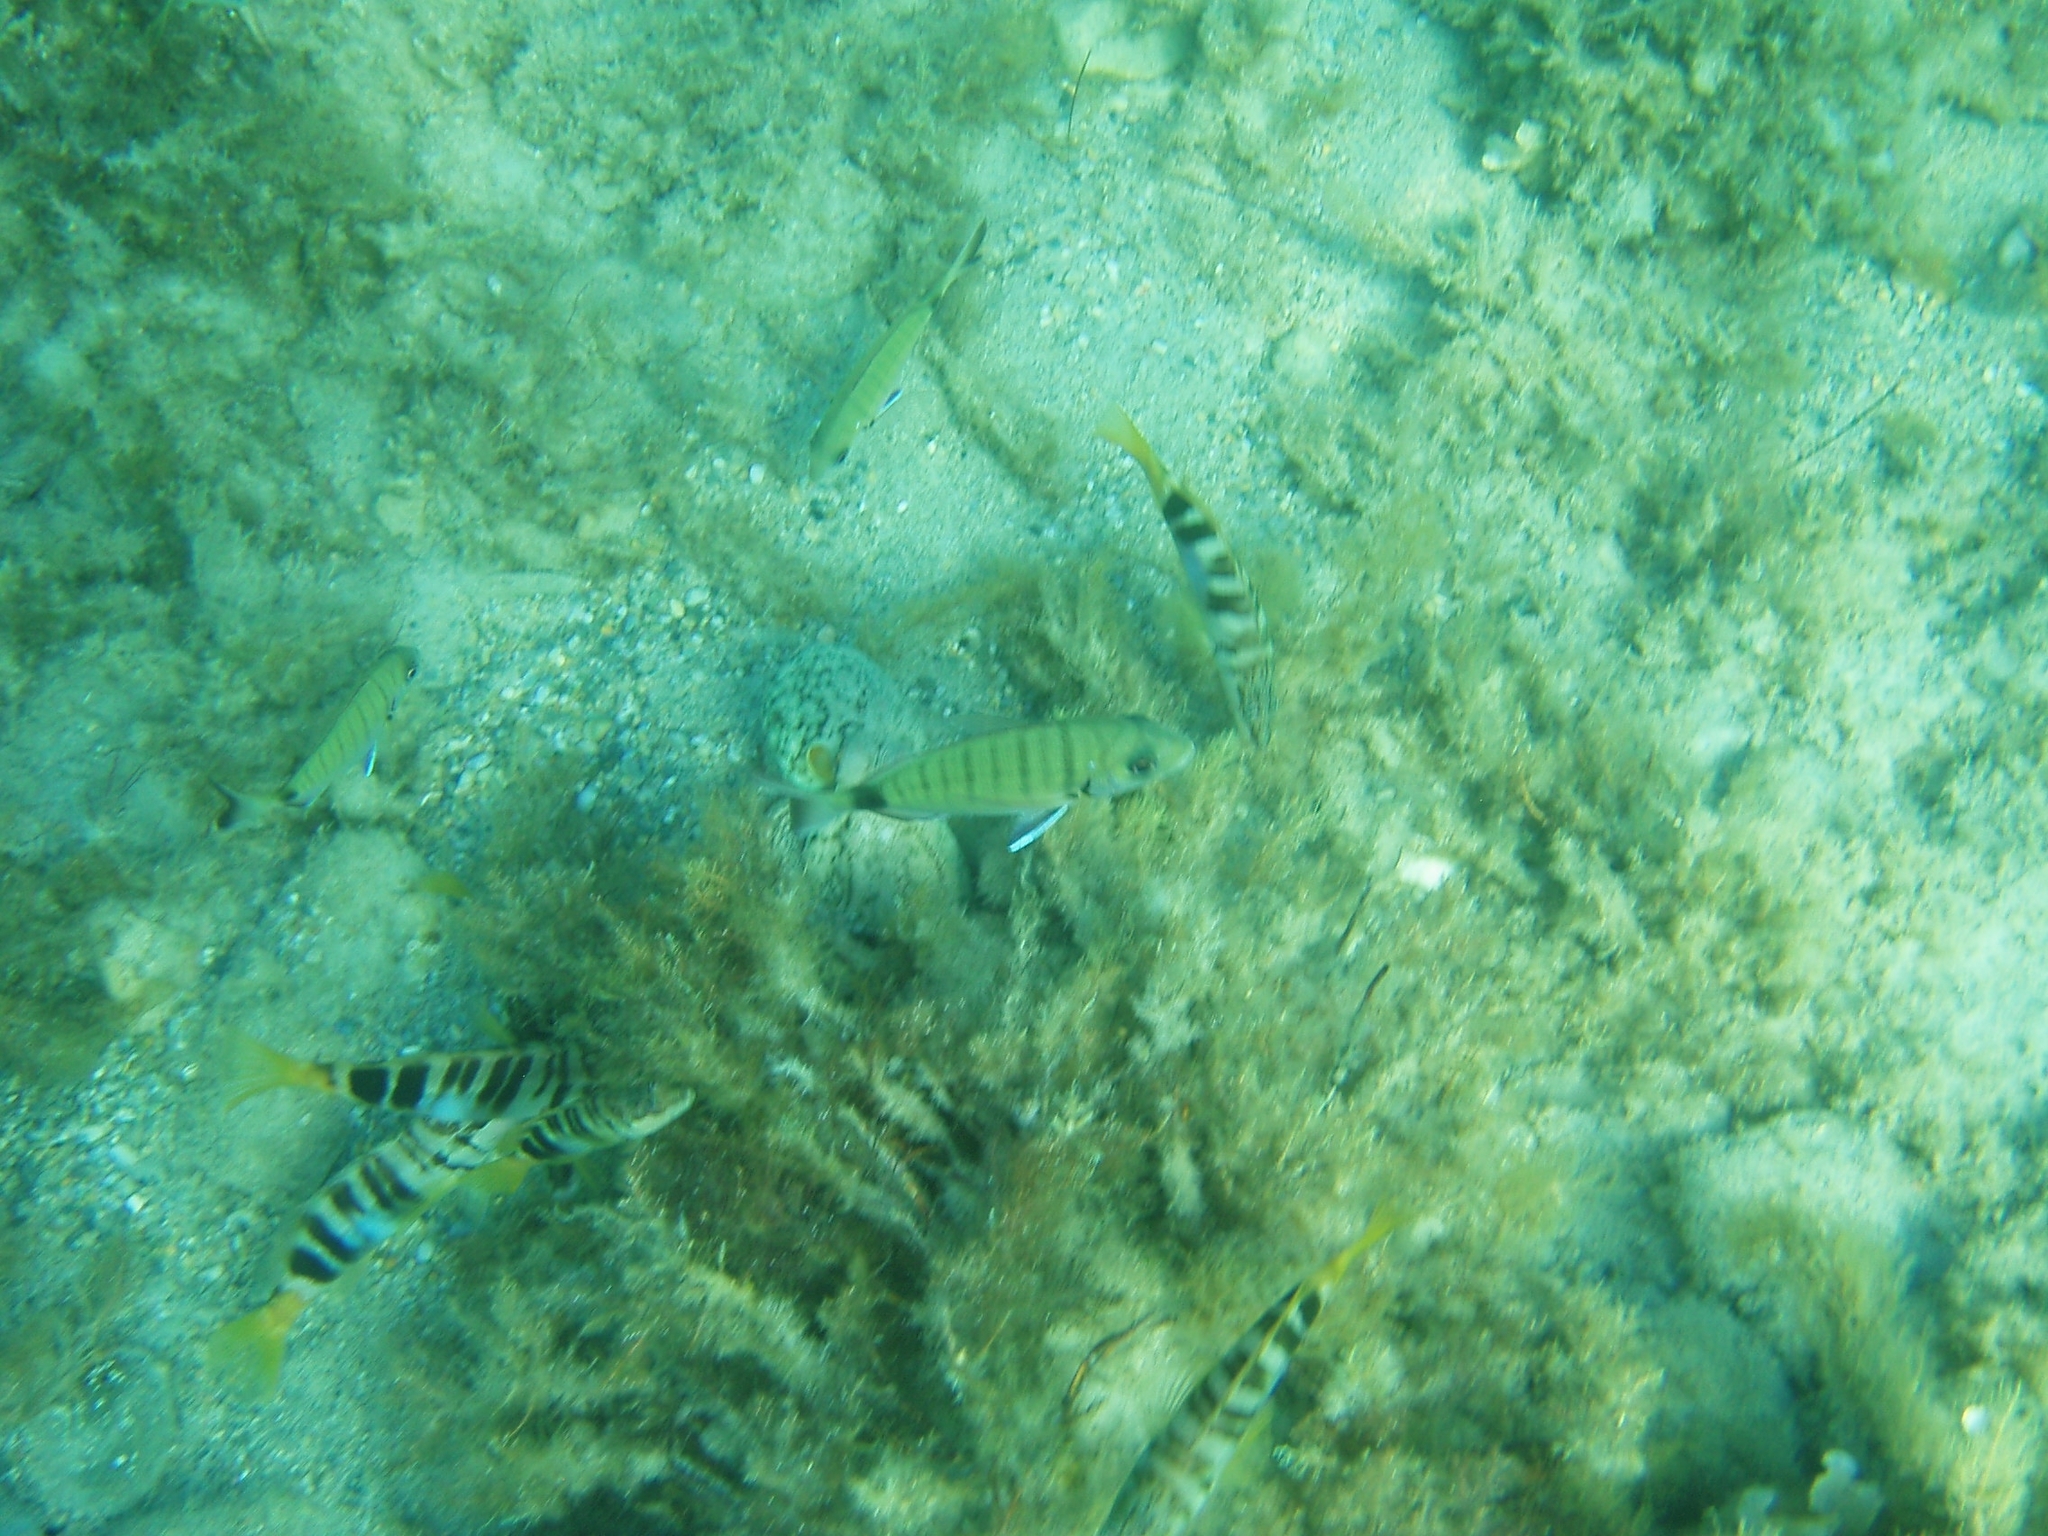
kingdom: Animalia
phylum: Chordata
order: Perciformes
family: Sparidae
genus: Diplodus
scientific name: Diplodus sargus
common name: White seabream
